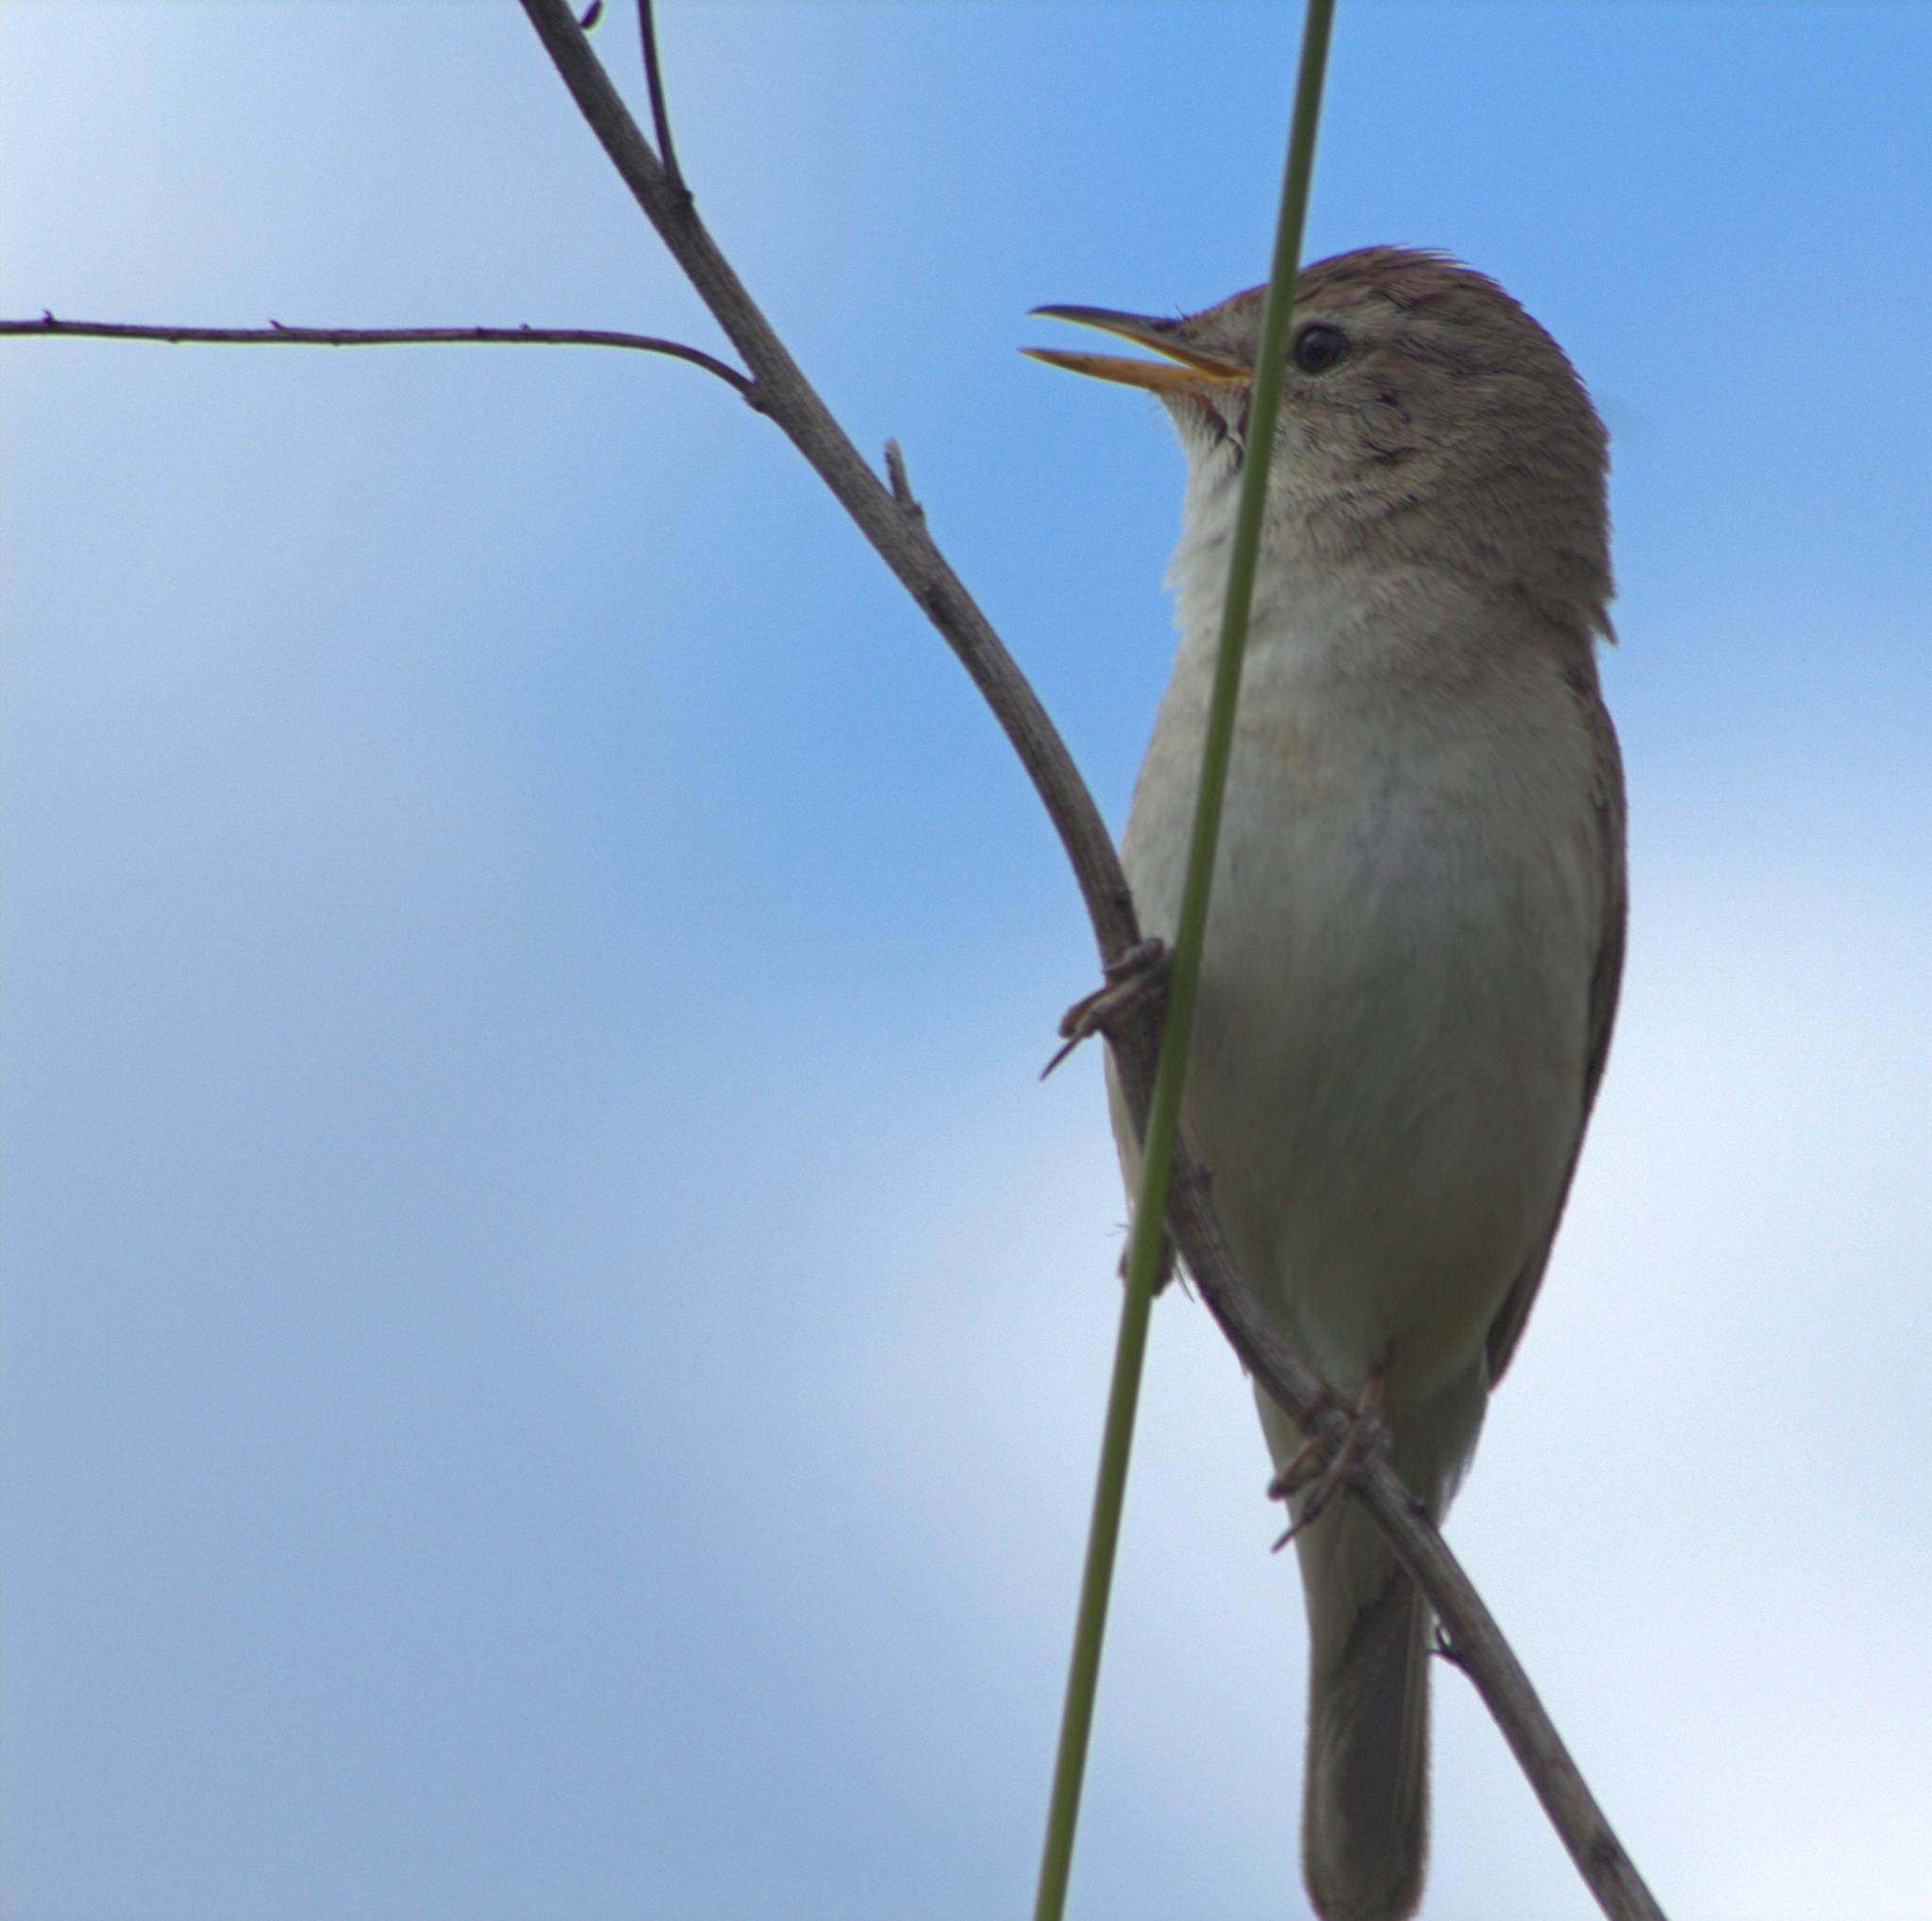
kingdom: Animalia
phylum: Chordata
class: Aves
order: Passeriformes
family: Acrocephalidae
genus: Iduna
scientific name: Iduna caligata
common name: Booted warbler
